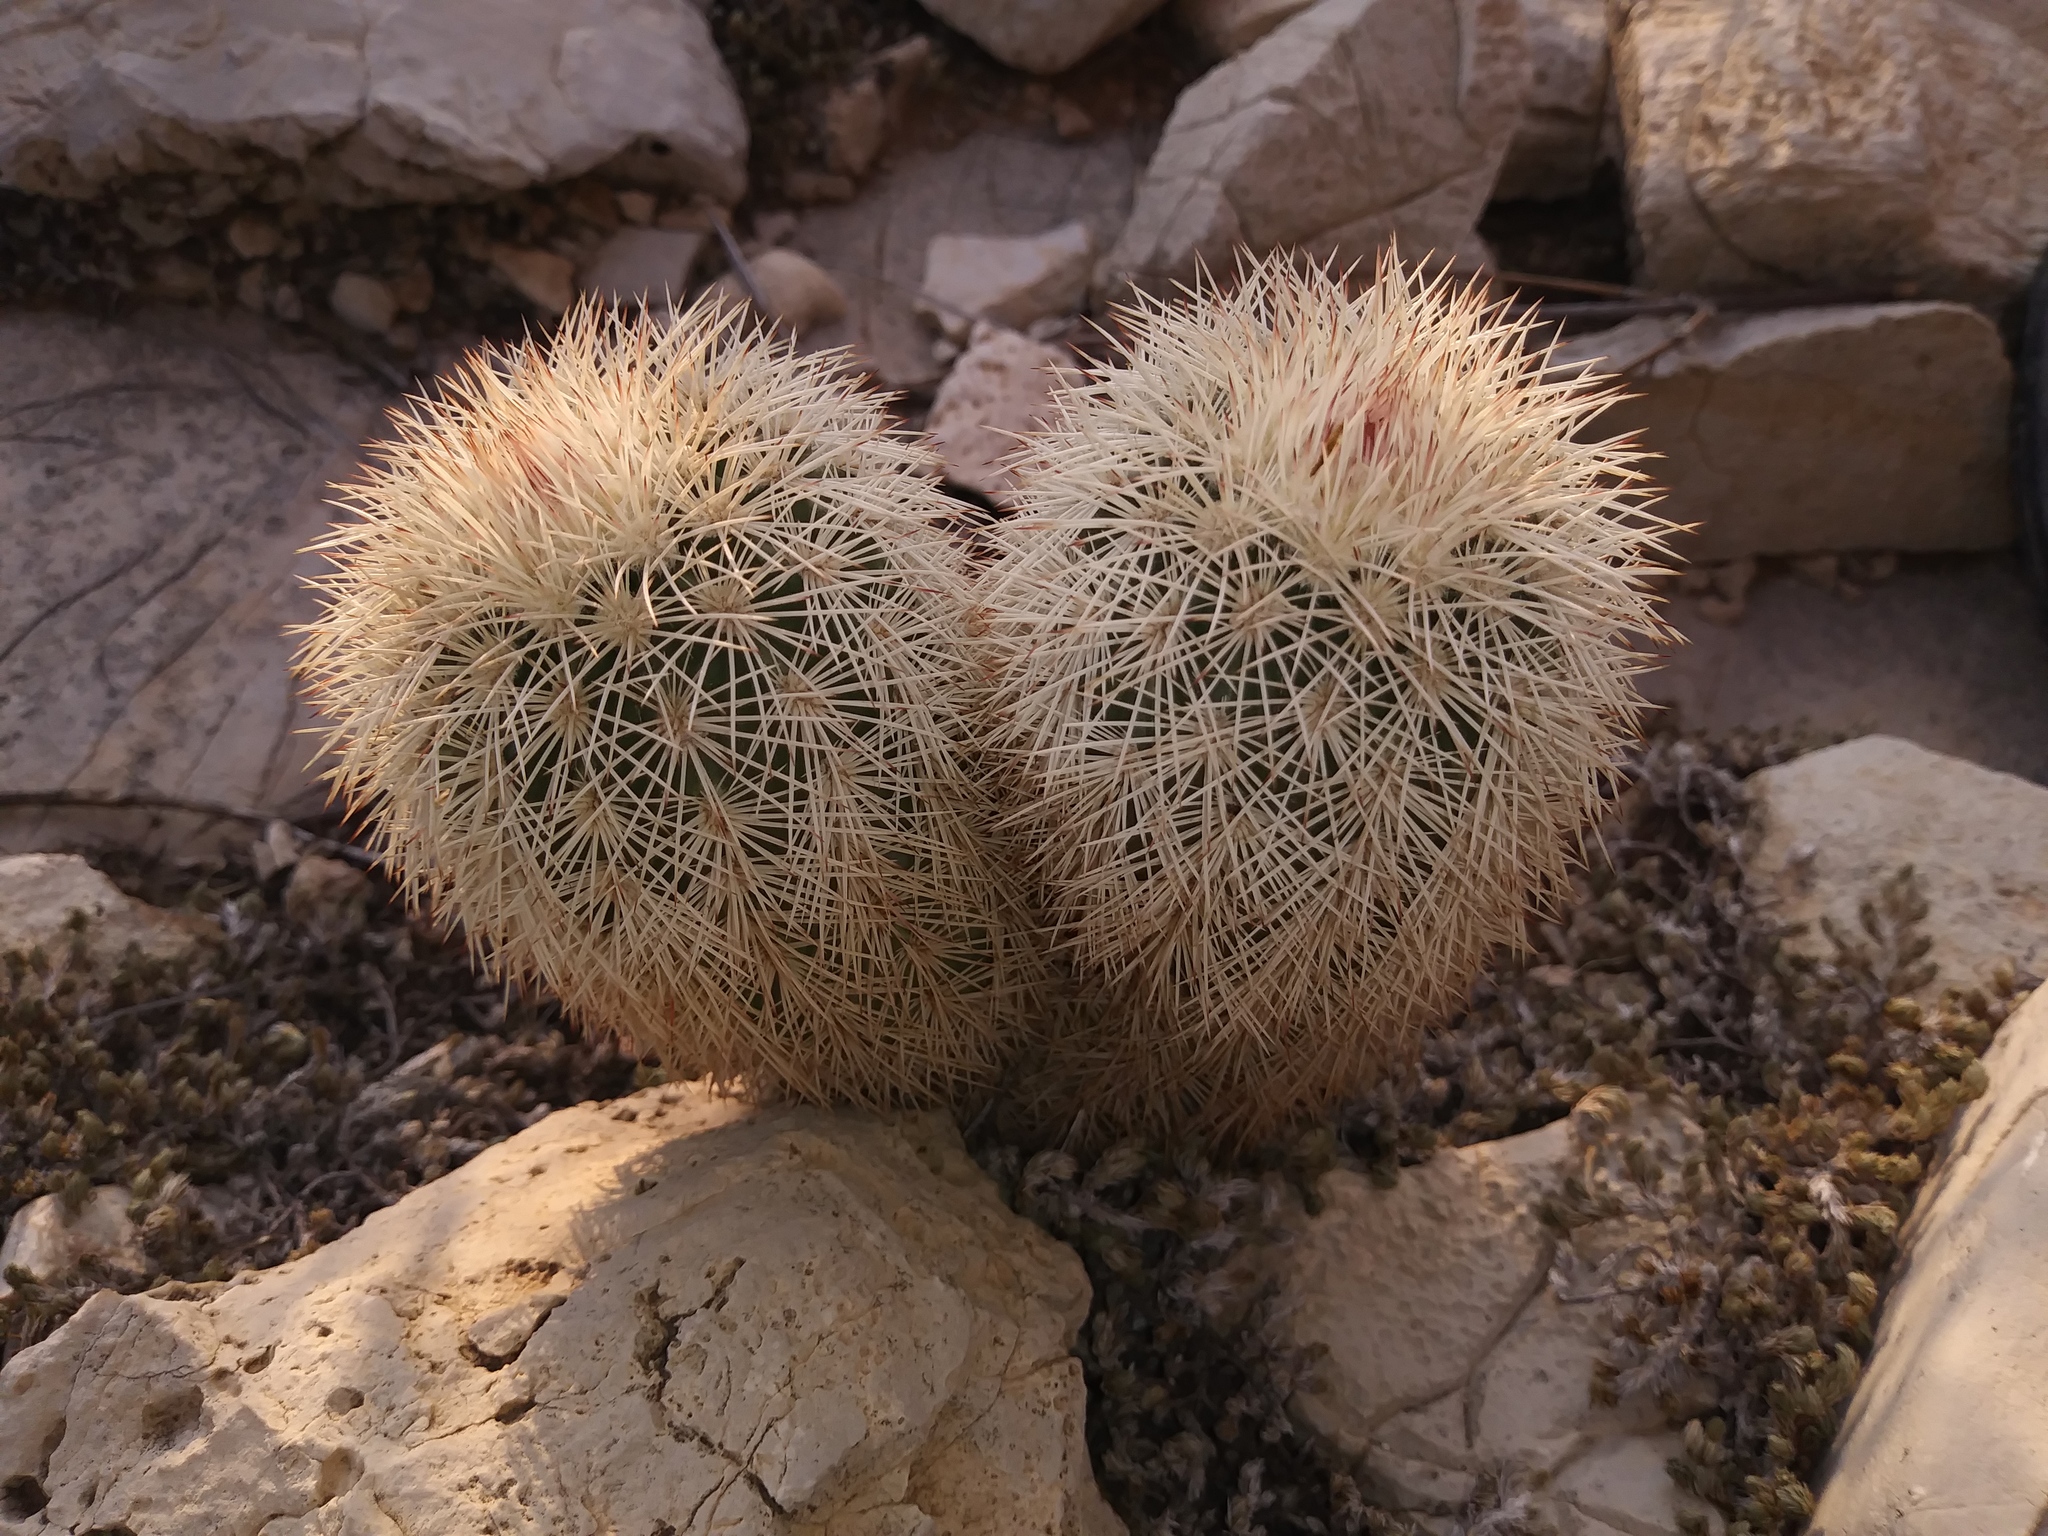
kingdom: Plantae
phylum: Tracheophyta
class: Magnoliopsida
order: Caryophyllales
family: Cactaceae
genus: Echinocereus
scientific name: Echinocereus dasyacanthus
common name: Spiny hedgehog cactus
